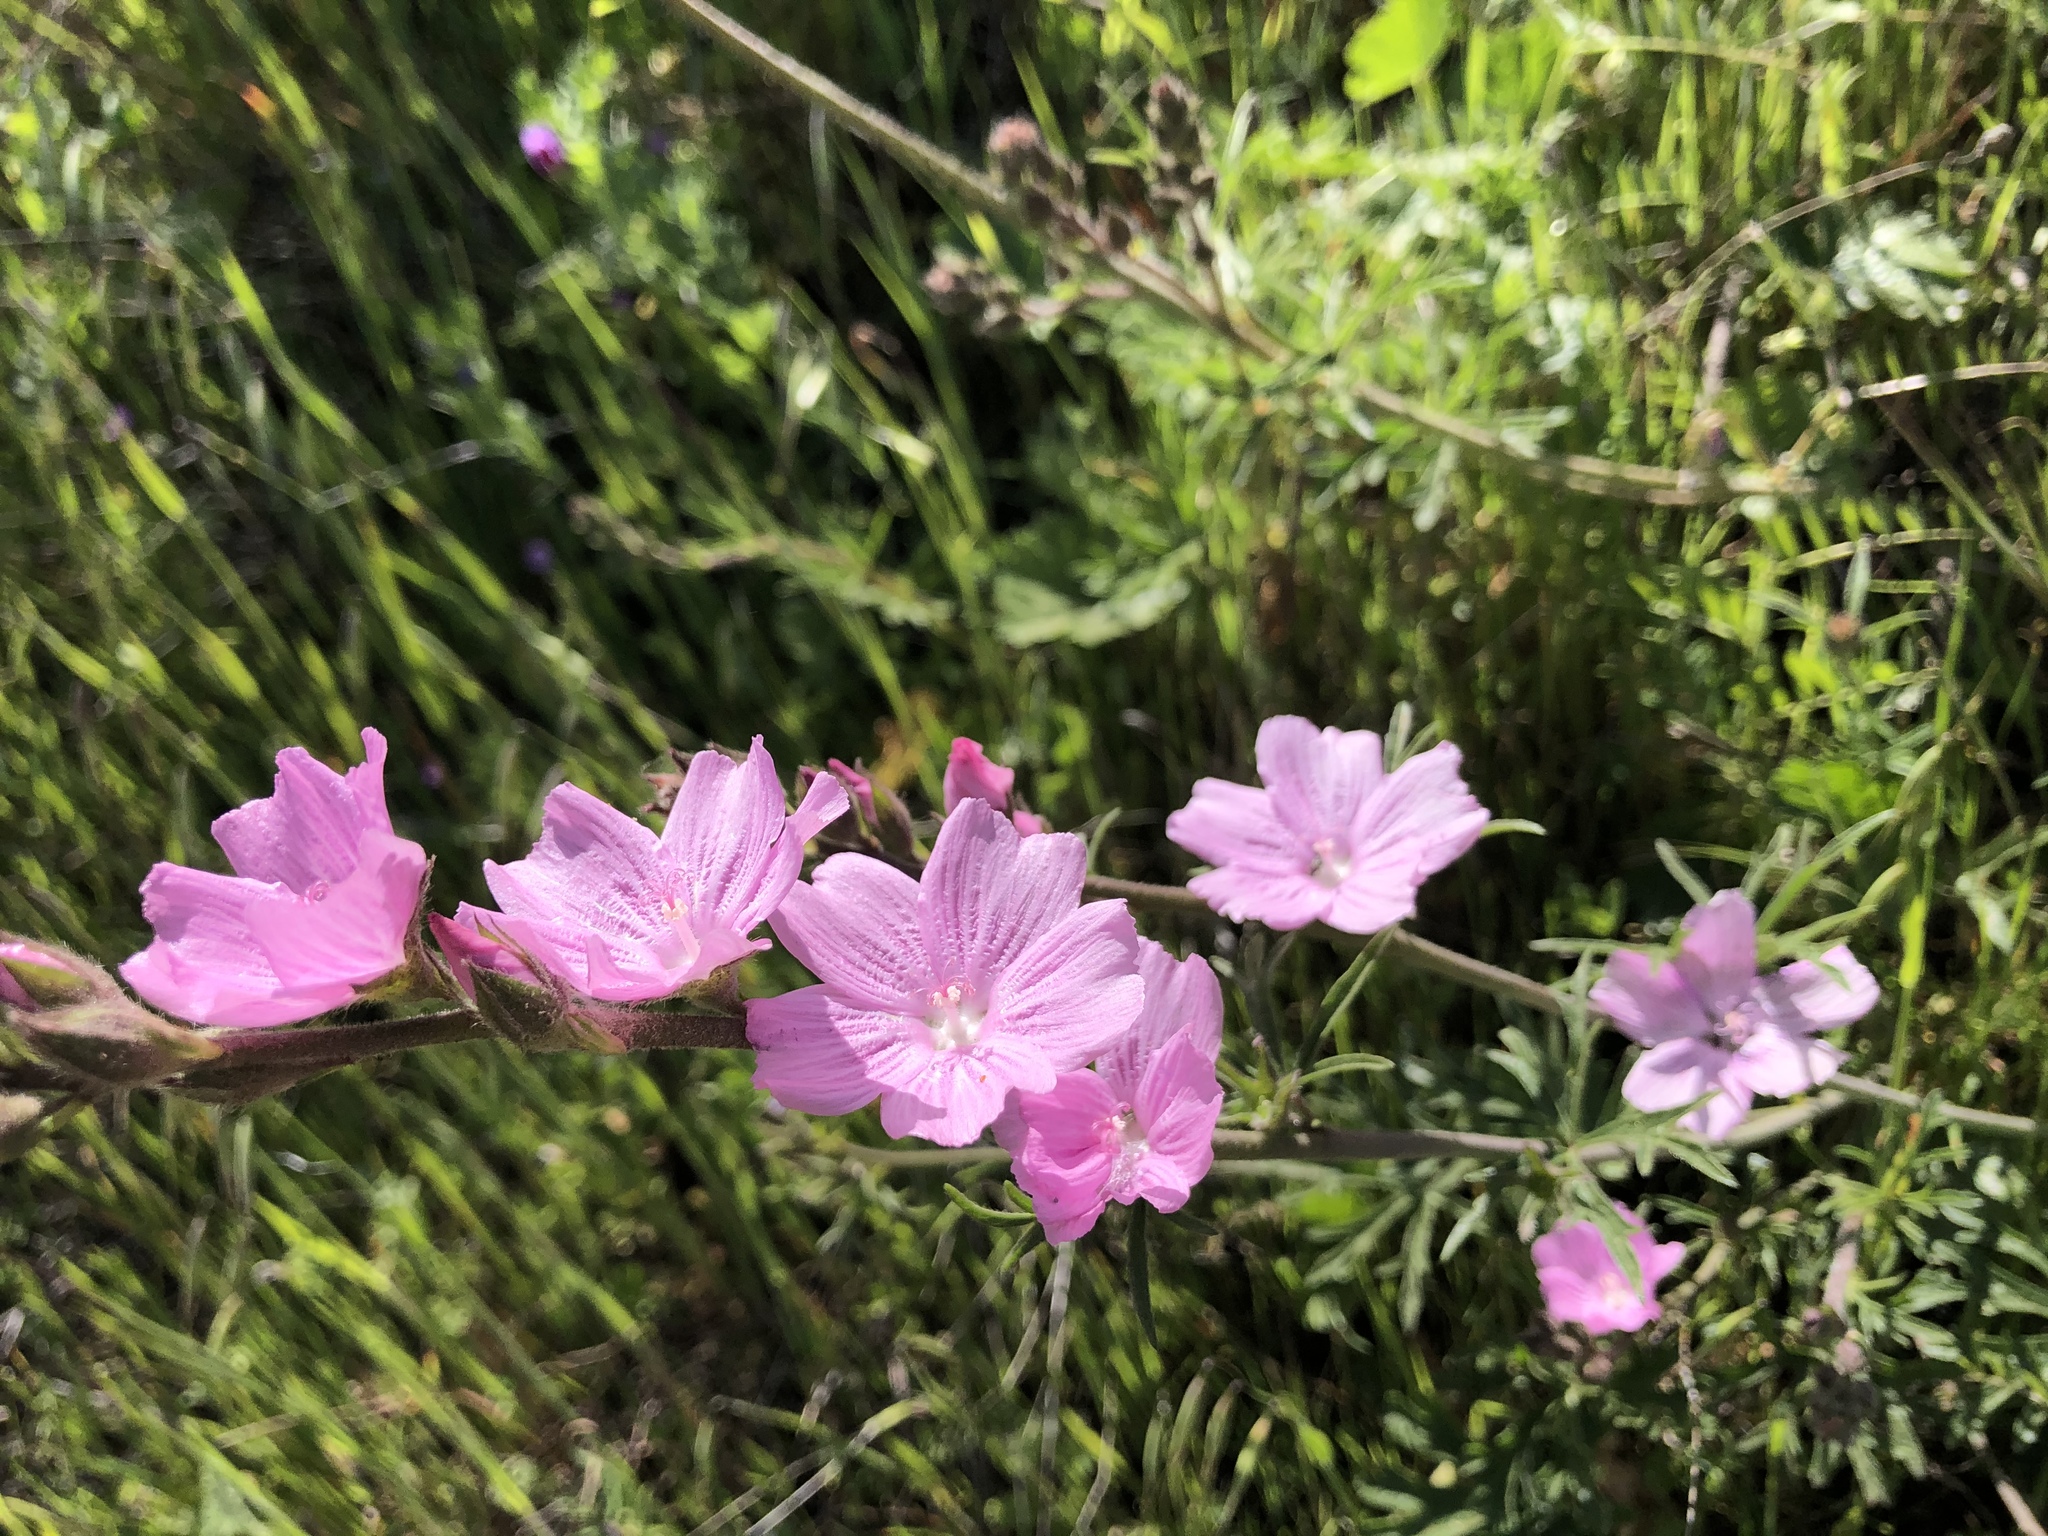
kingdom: Plantae
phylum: Tracheophyta
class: Magnoliopsida
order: Malvales
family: Malvaceae
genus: Sidalcea
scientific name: Sidalcea malviflora
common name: Greek mallow
